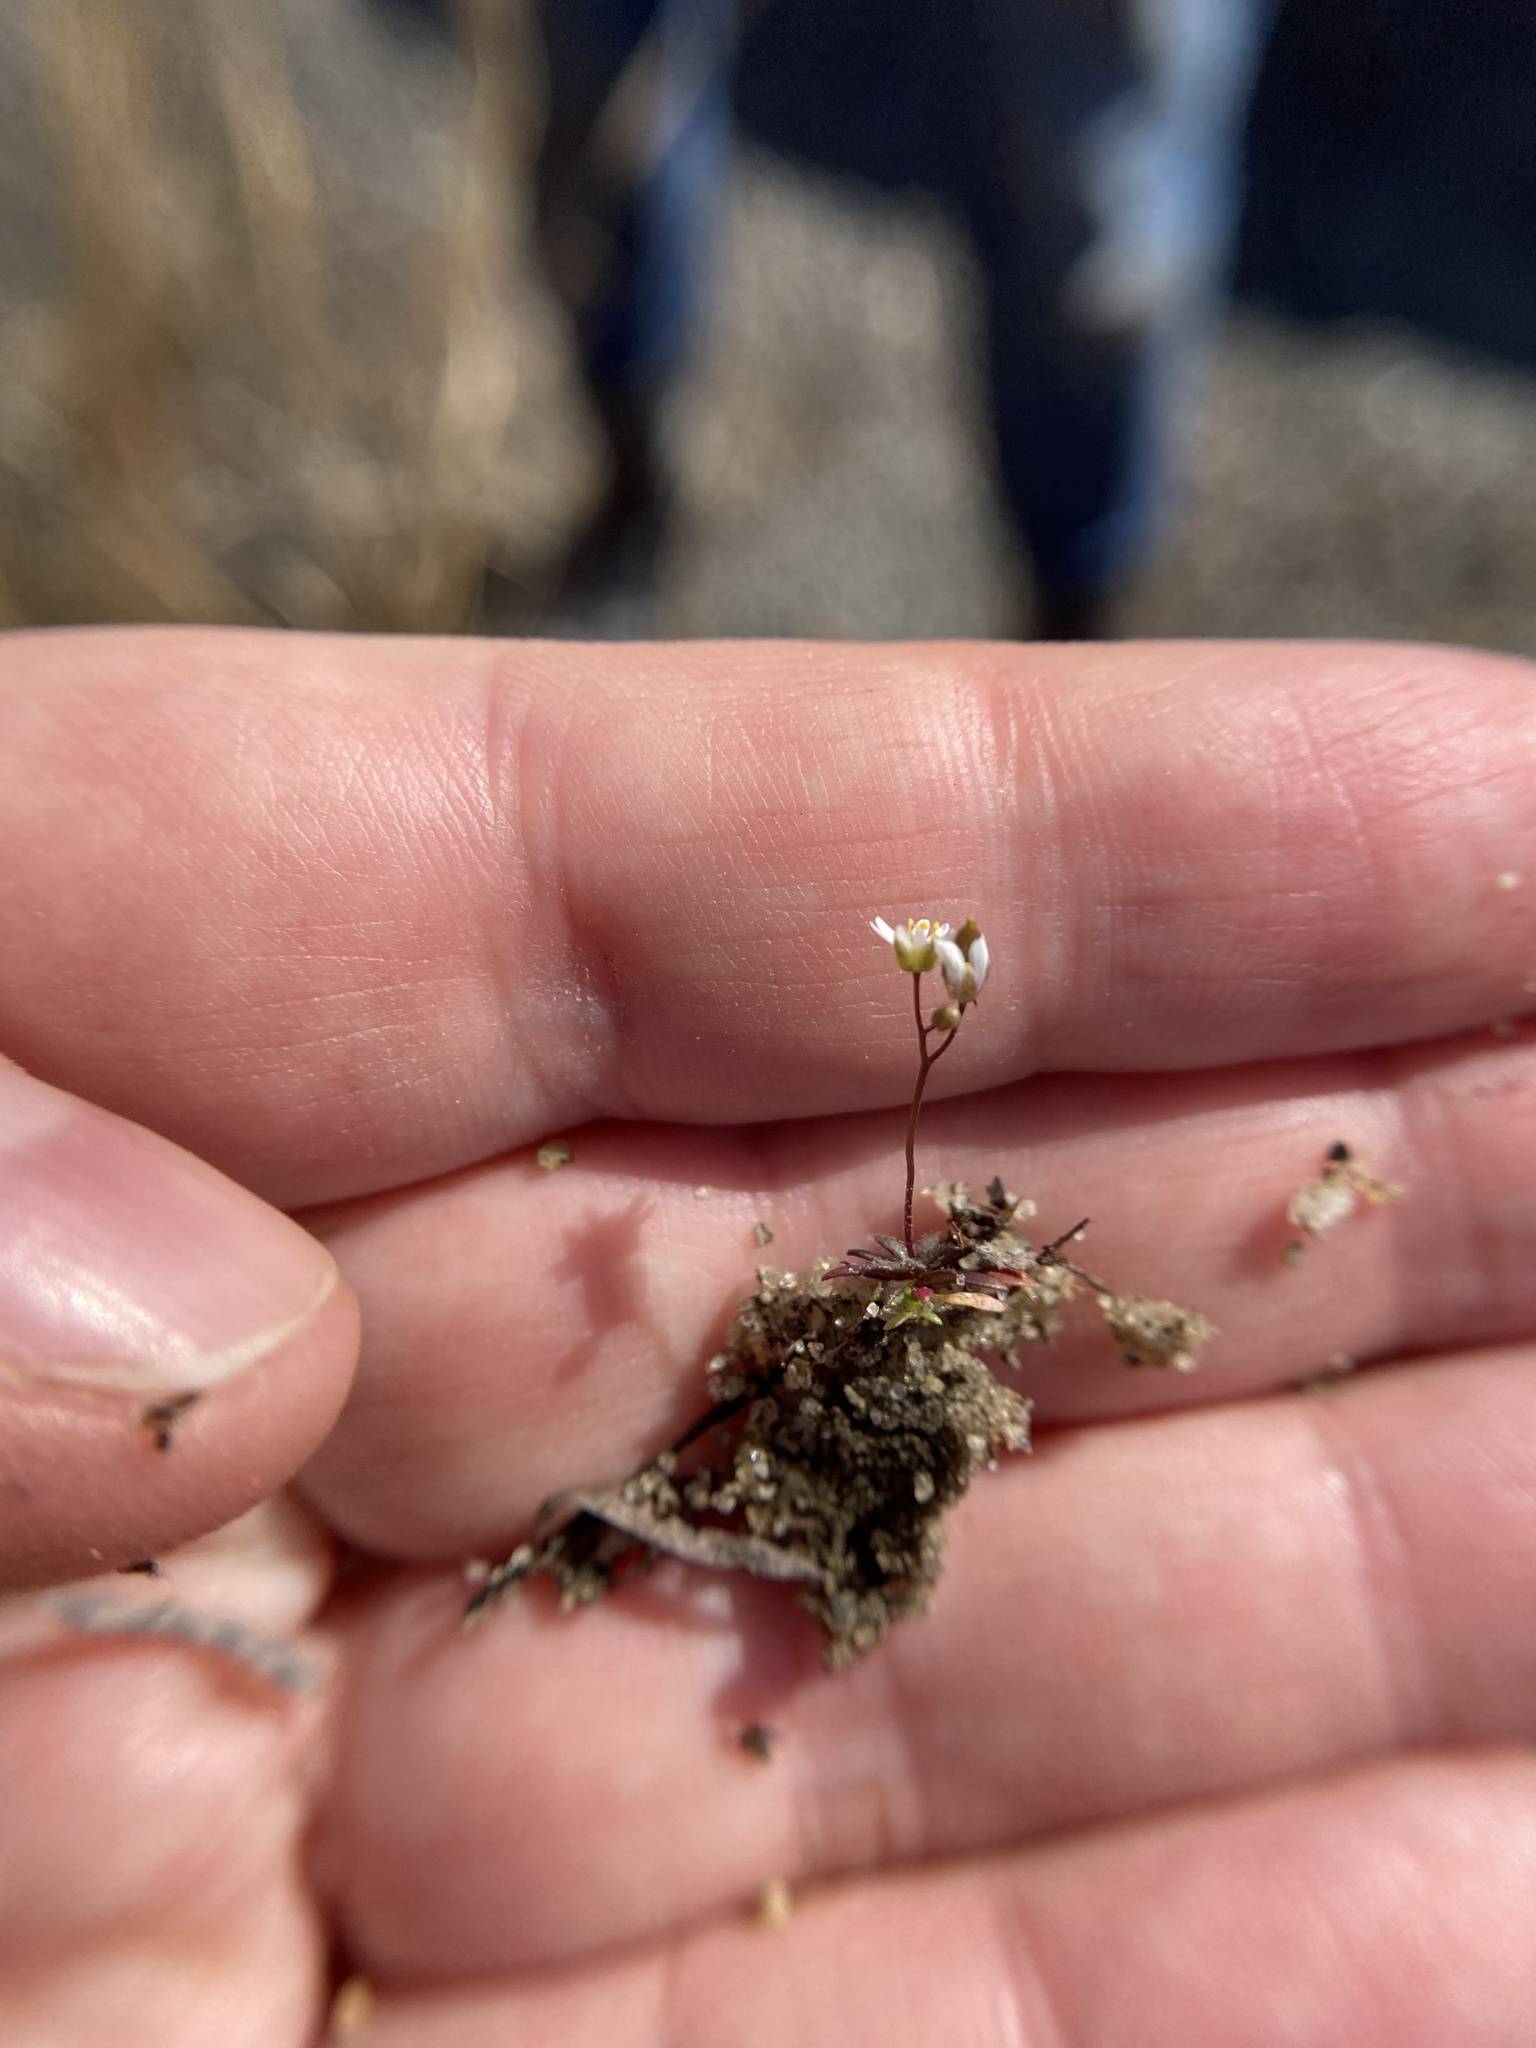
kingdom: Plantae
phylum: Tracheophyta
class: Magnoliopsida
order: Brassicales
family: Brassicaceae
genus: Draba
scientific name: Draba verna
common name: Spring draba
